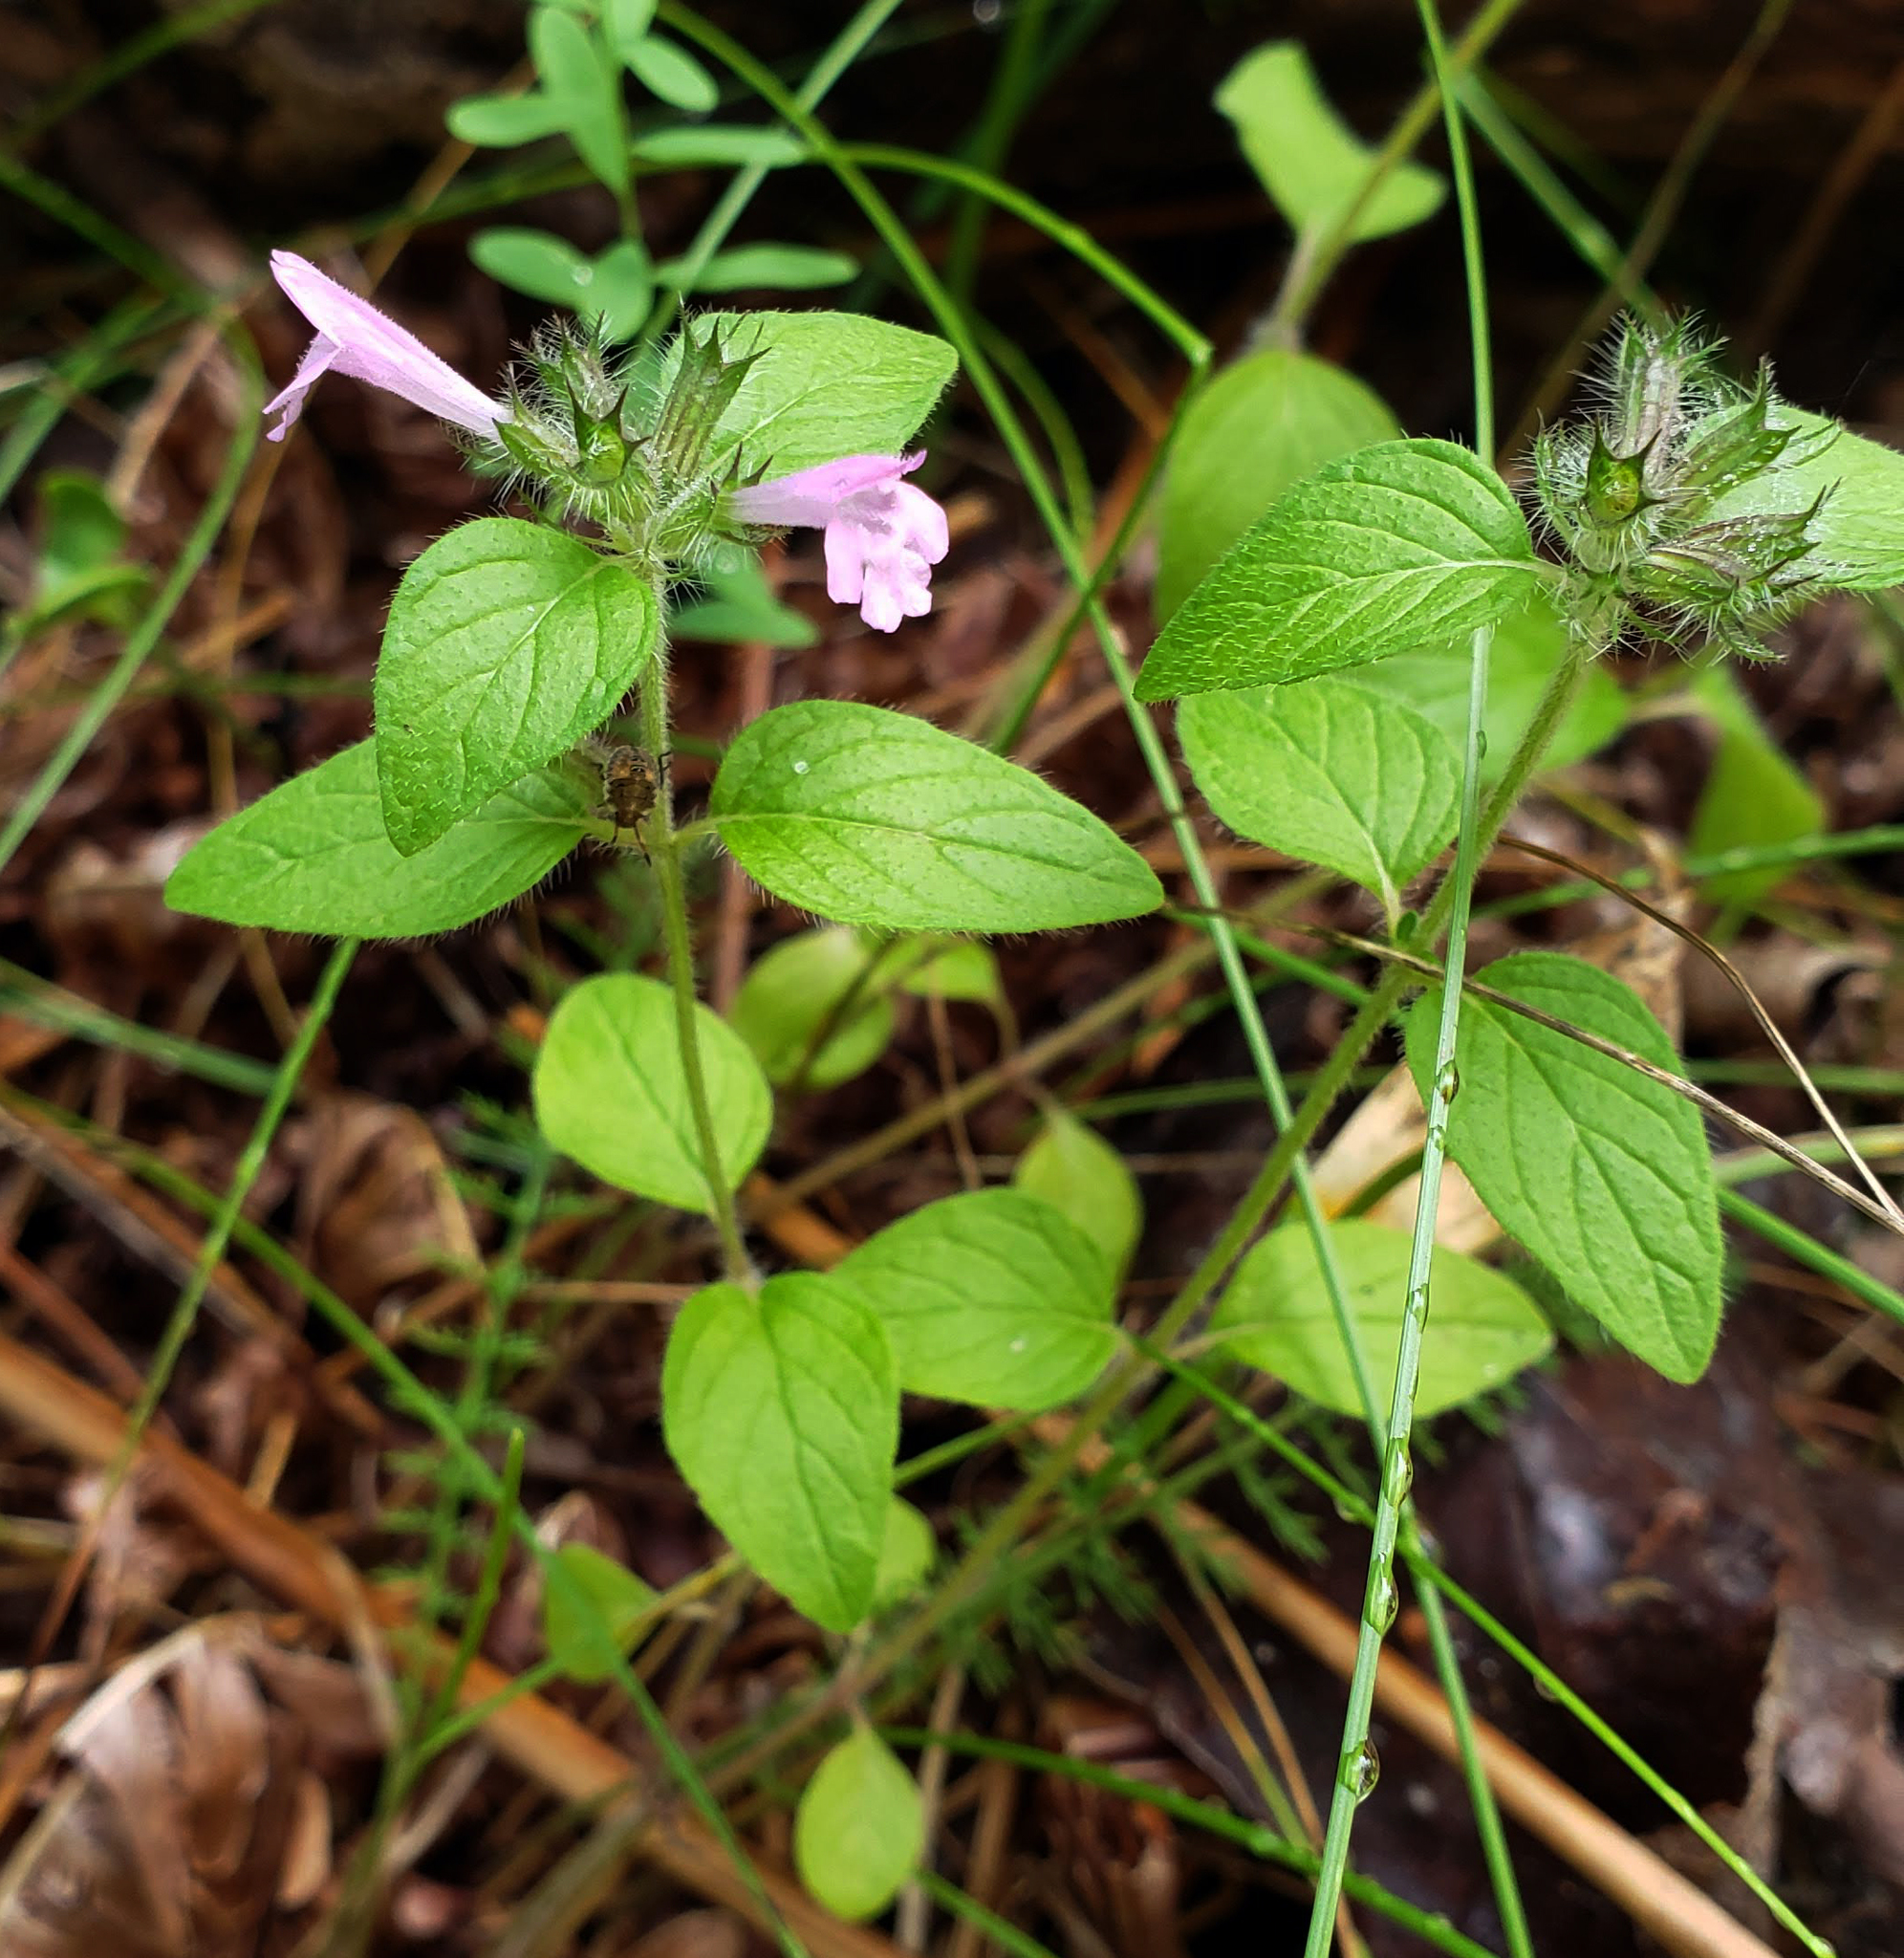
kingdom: Plantae
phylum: Tracheophyta
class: Magnoliopsida
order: Lamiales
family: Lamiaceae
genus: Clinopodium
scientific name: Clinopodium vulgare
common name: Wild basil
